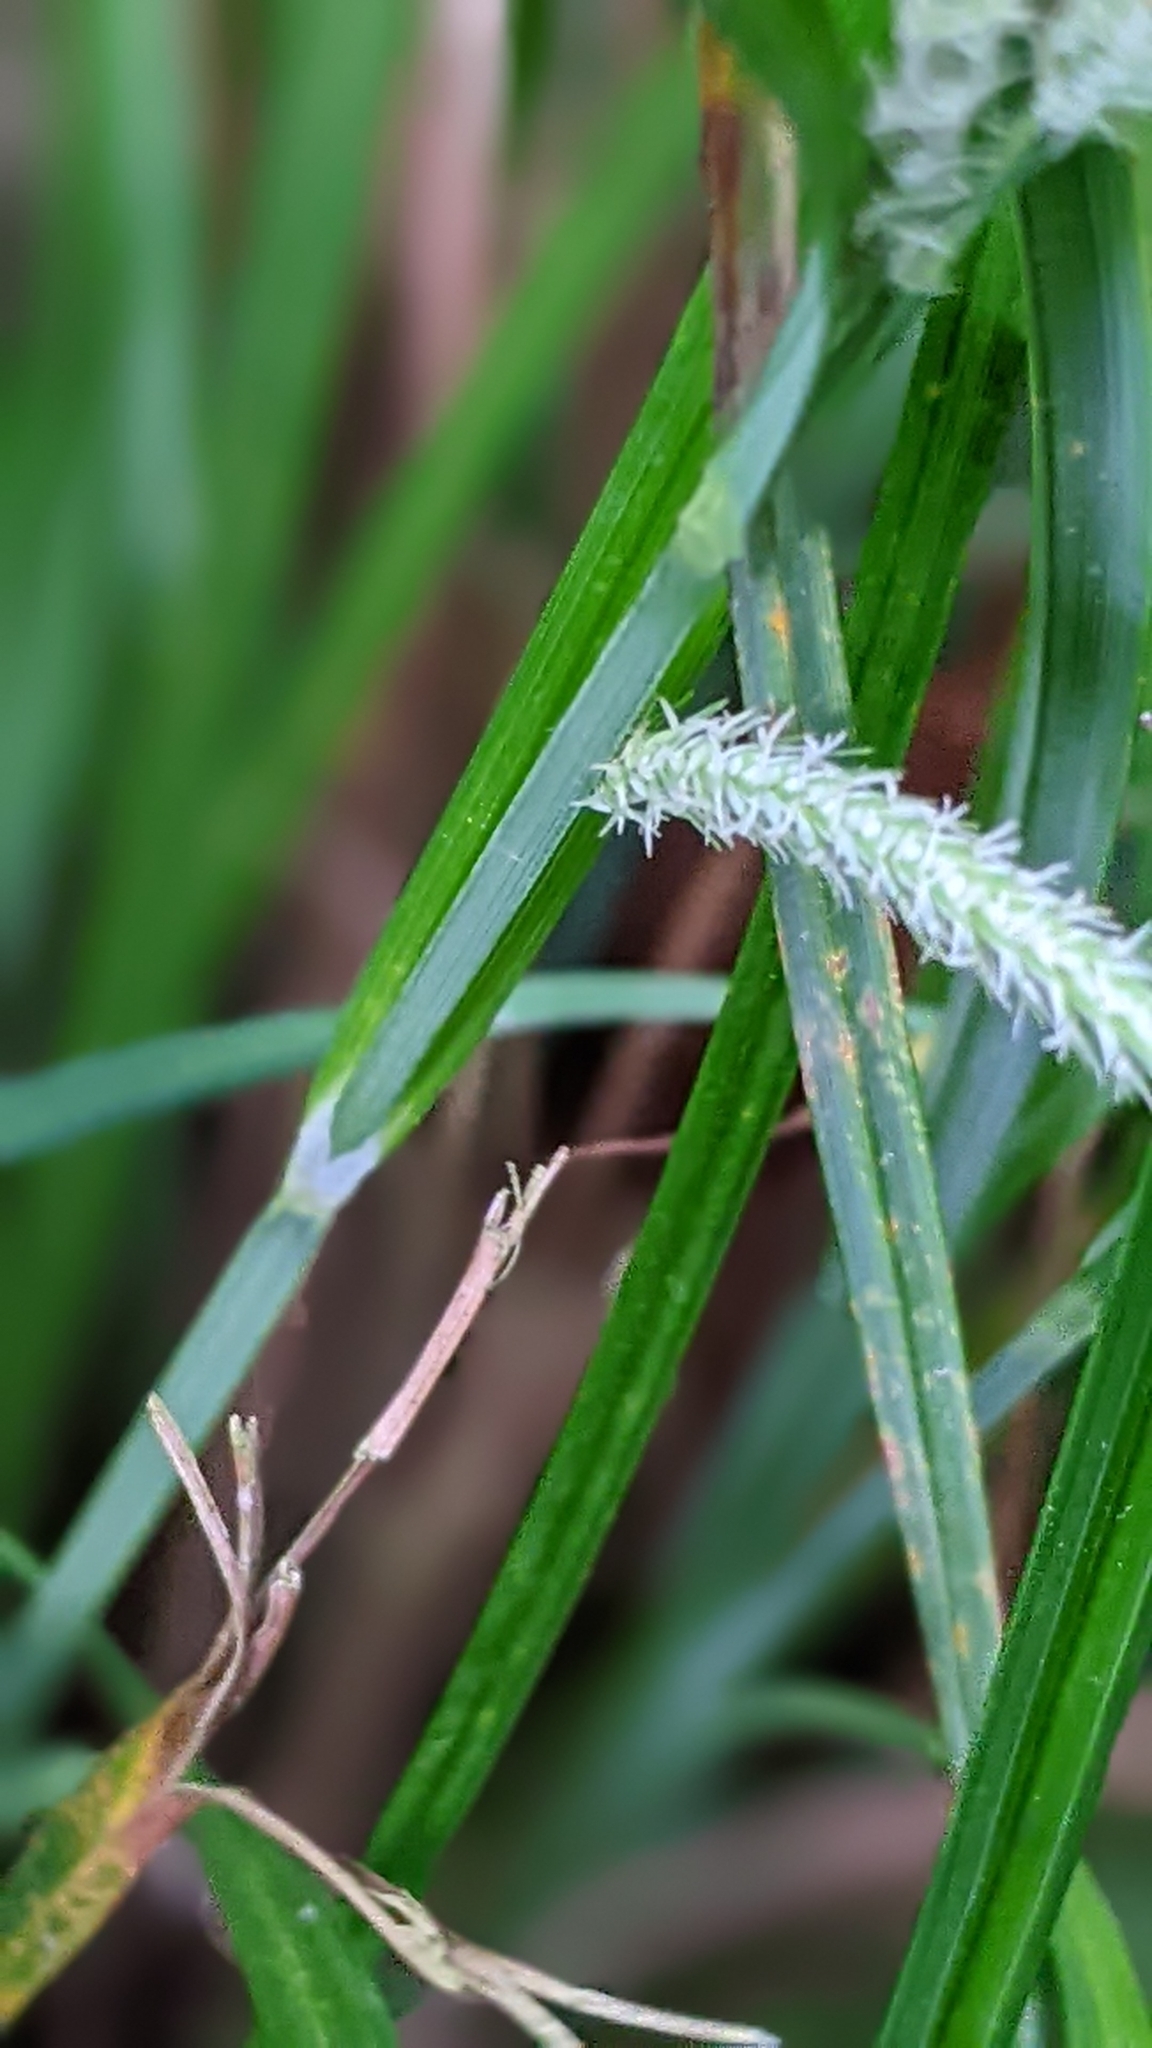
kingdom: Plantae
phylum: Tracheophyta
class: Liliopsida
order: Poales
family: Cyperaceae
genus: Carex
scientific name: Carex phacota
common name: Lakeshore sedge
